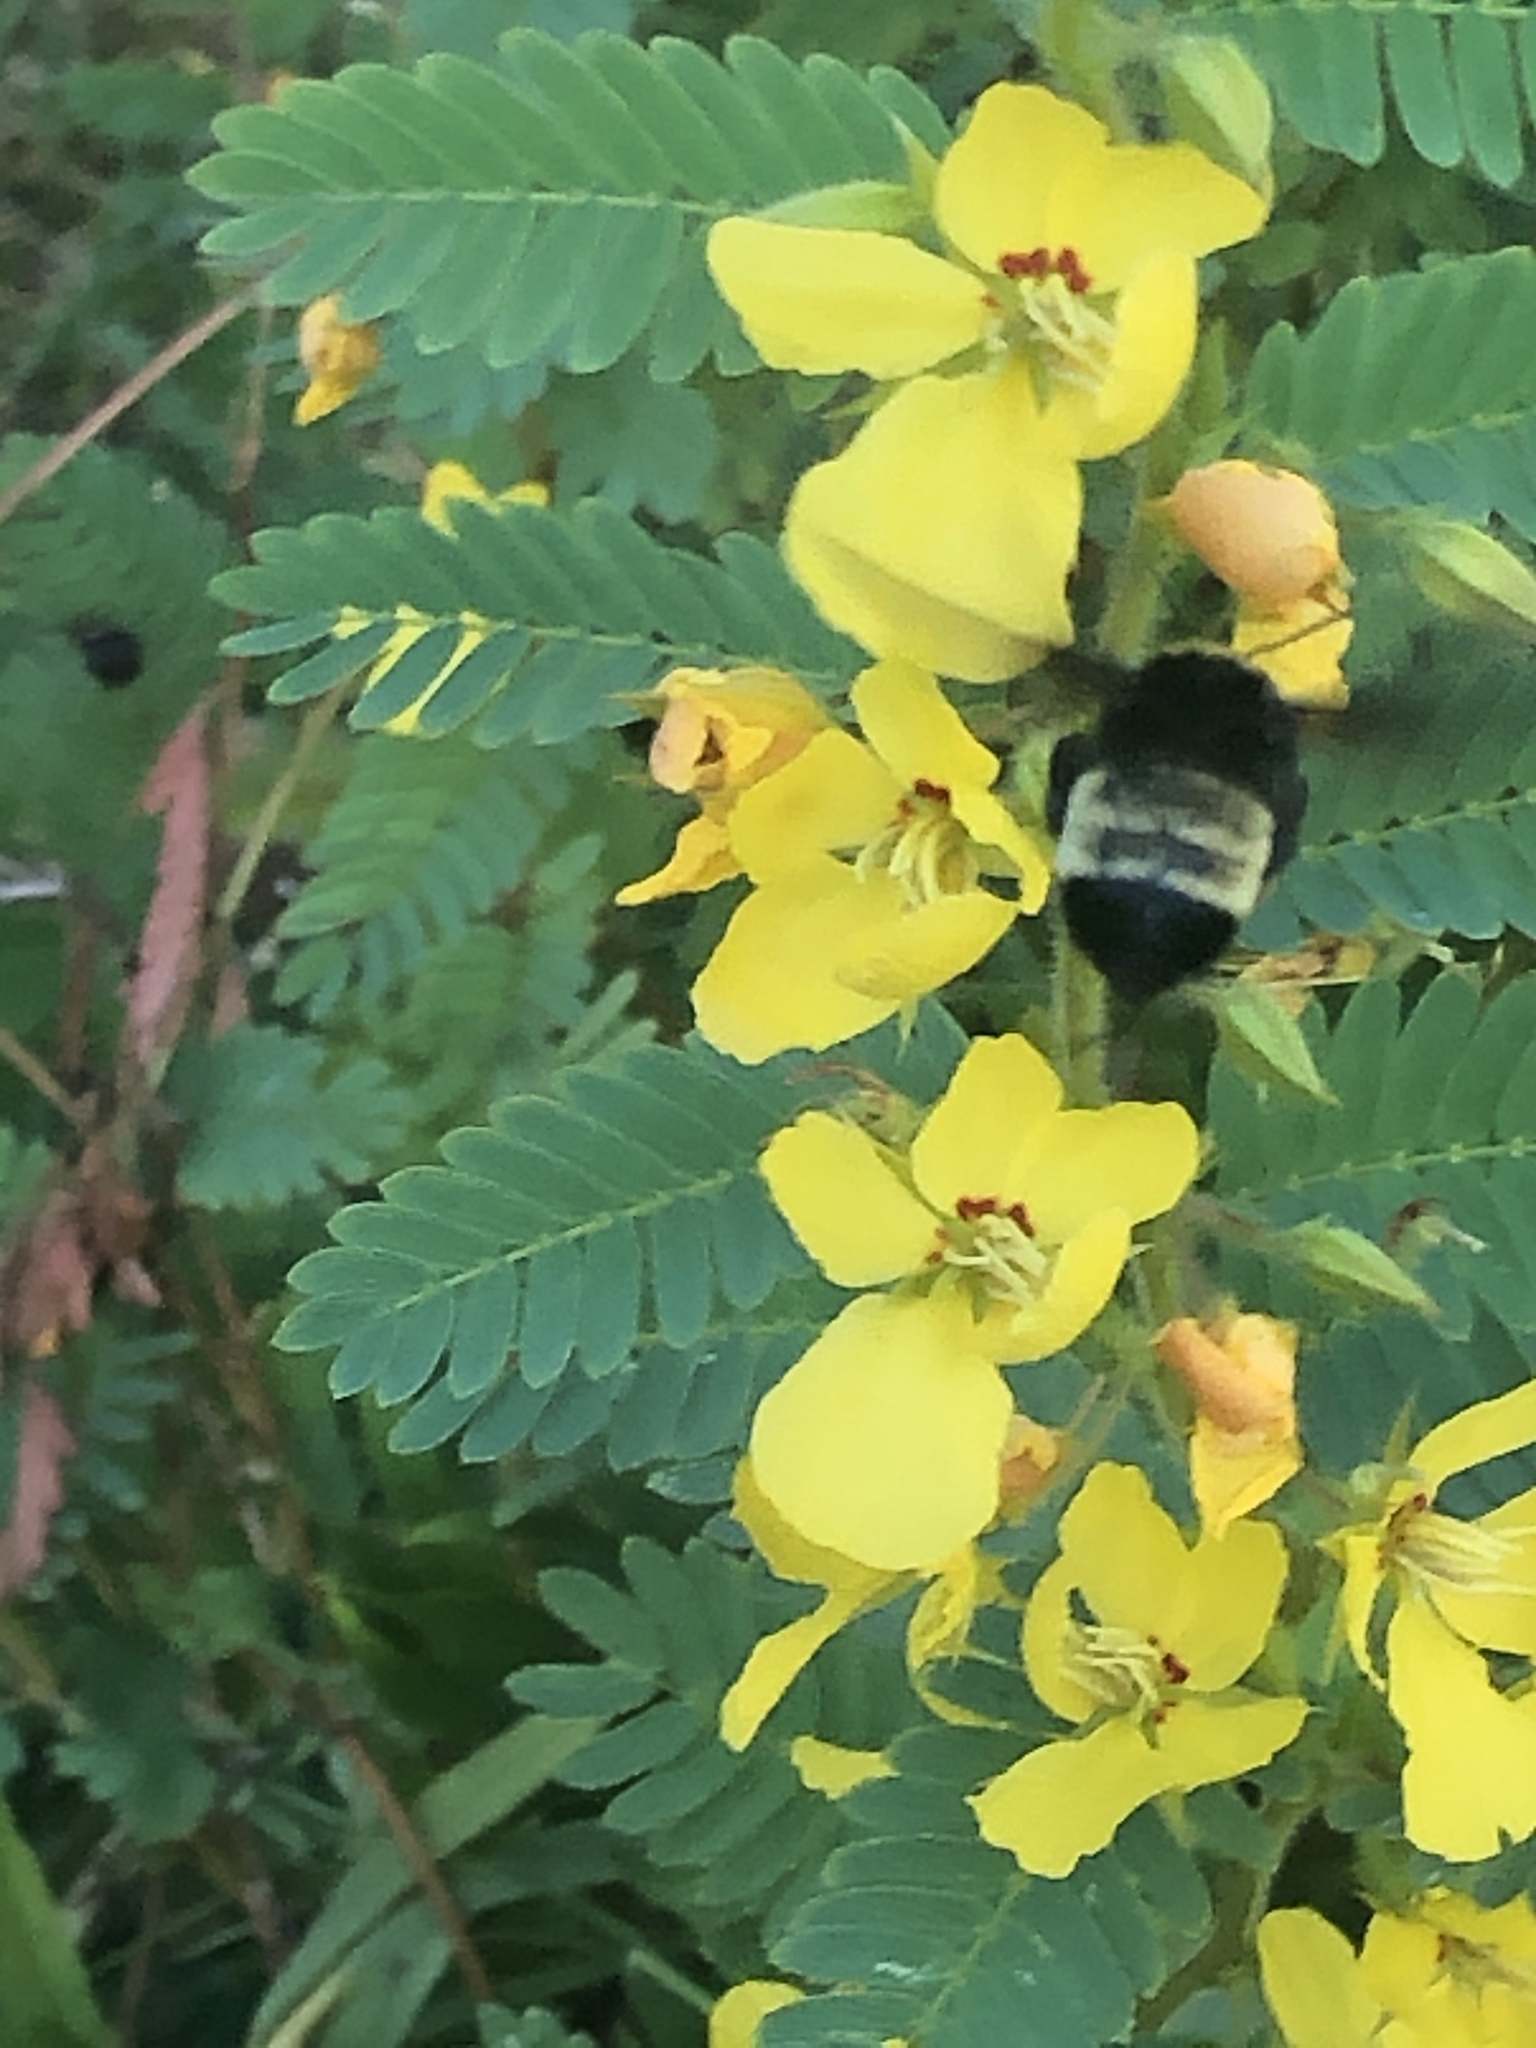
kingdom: Animalia
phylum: Arthropoda
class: Insecta
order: Hymenoptera
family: Apidae
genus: Bombus
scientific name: Bombus pensylvanicus
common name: Bumble bee
